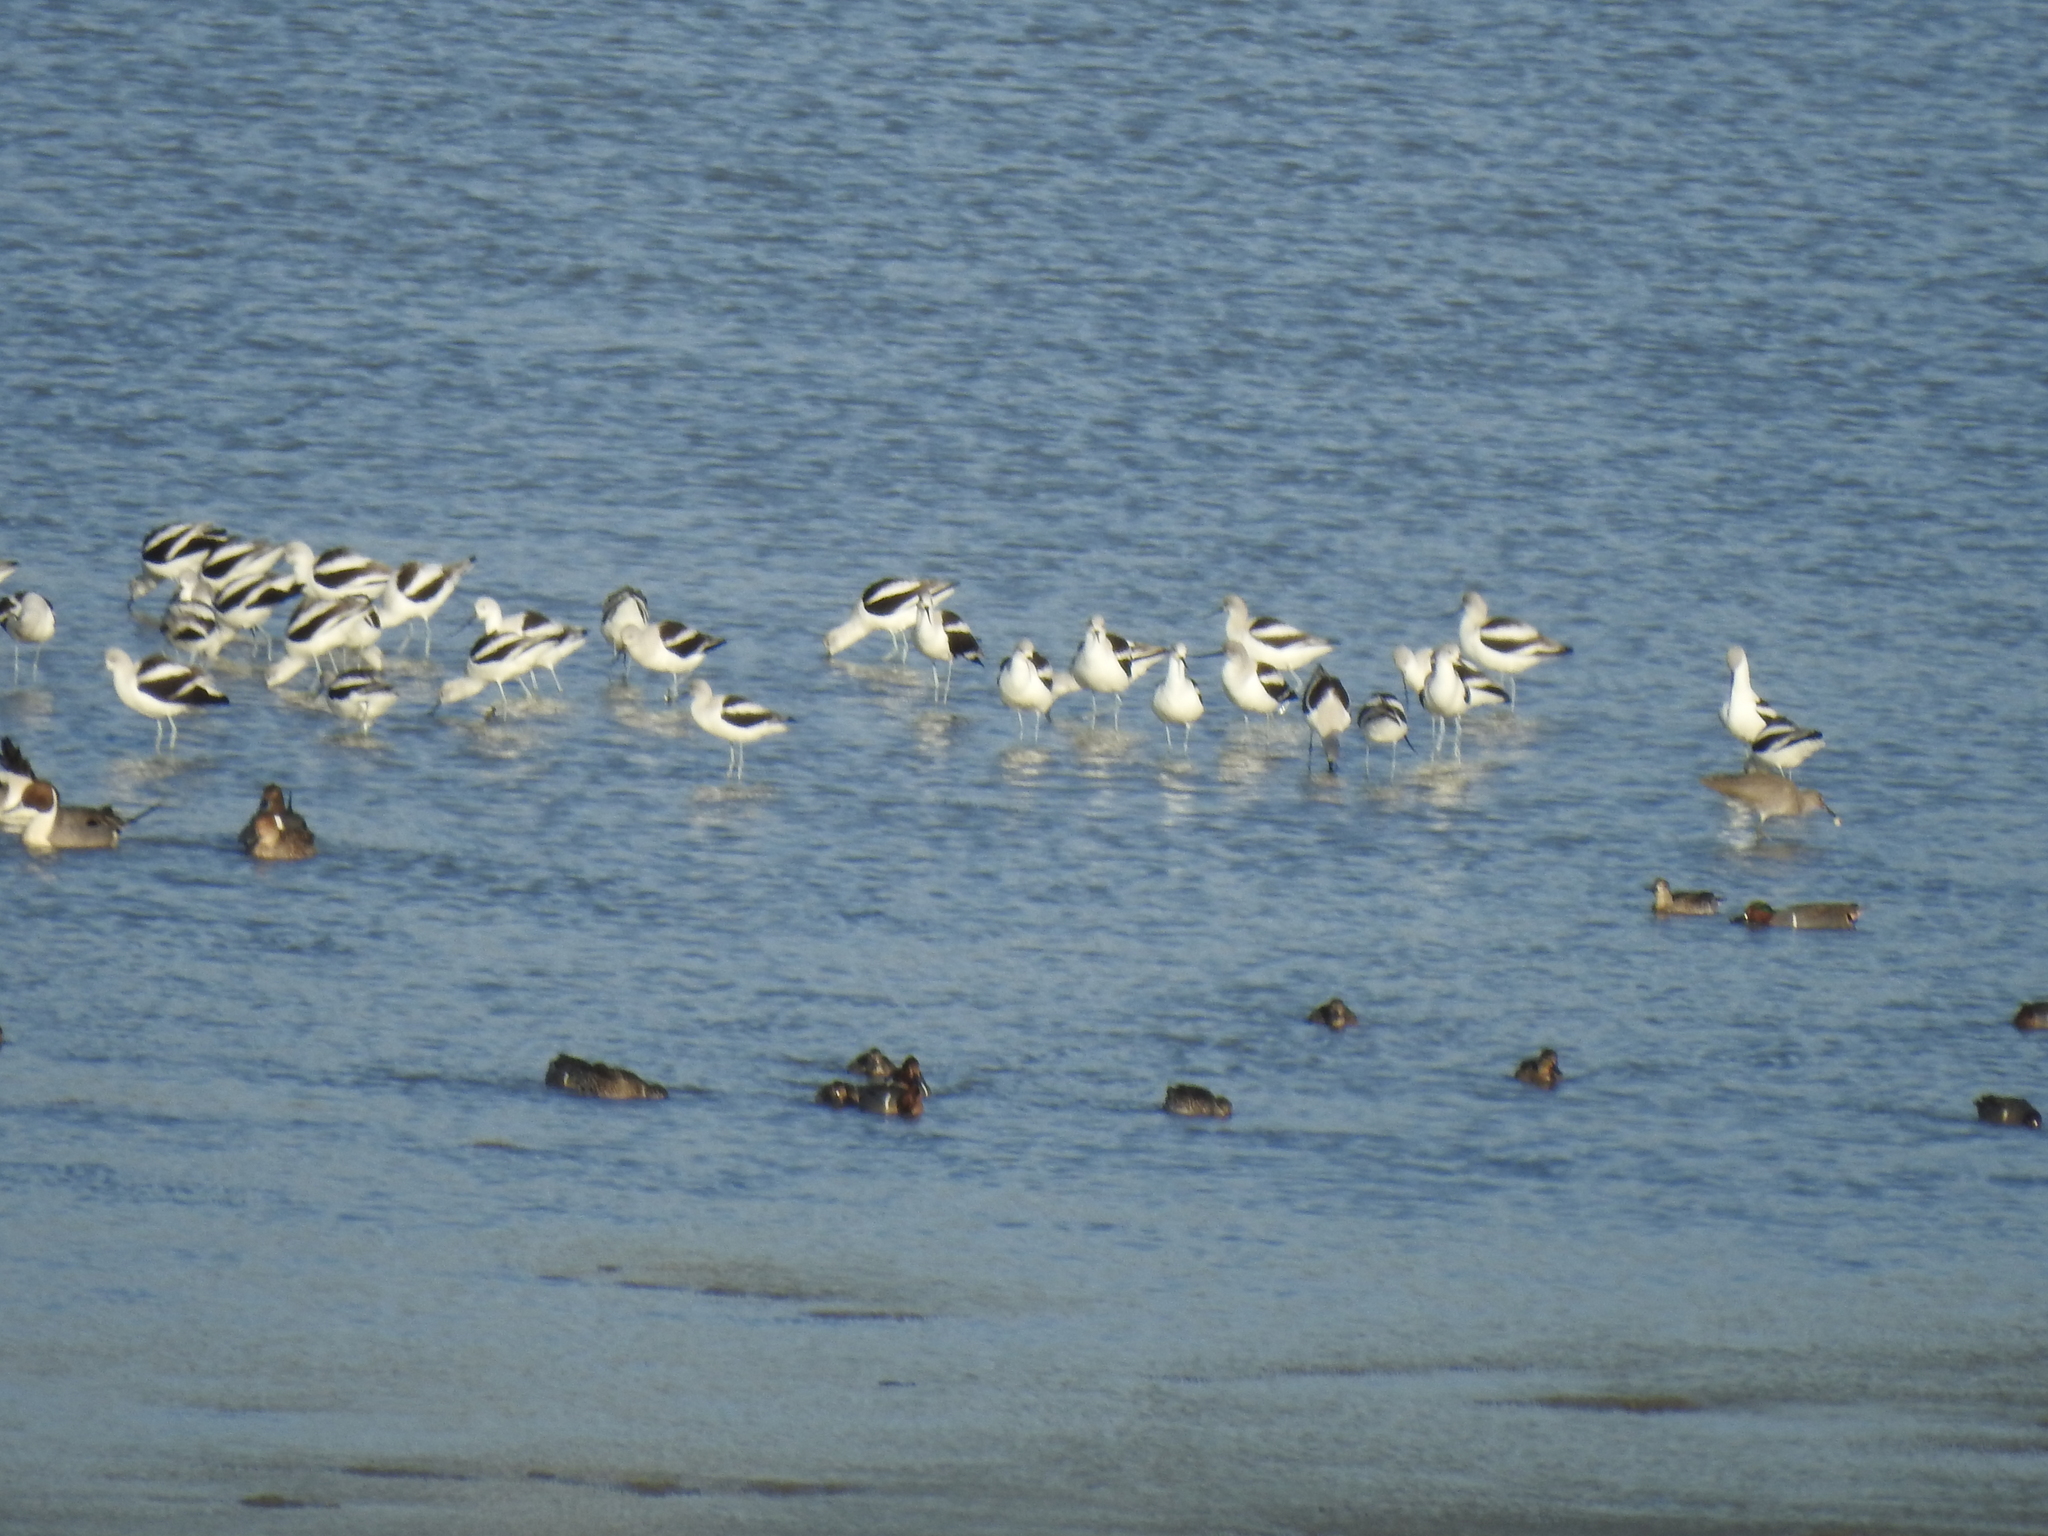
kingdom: Animalia
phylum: Chordata
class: Aves
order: Charadriiformes
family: Recurvirostridae
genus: Recurvirostra
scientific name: Recurvirostra americana
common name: American avocet
